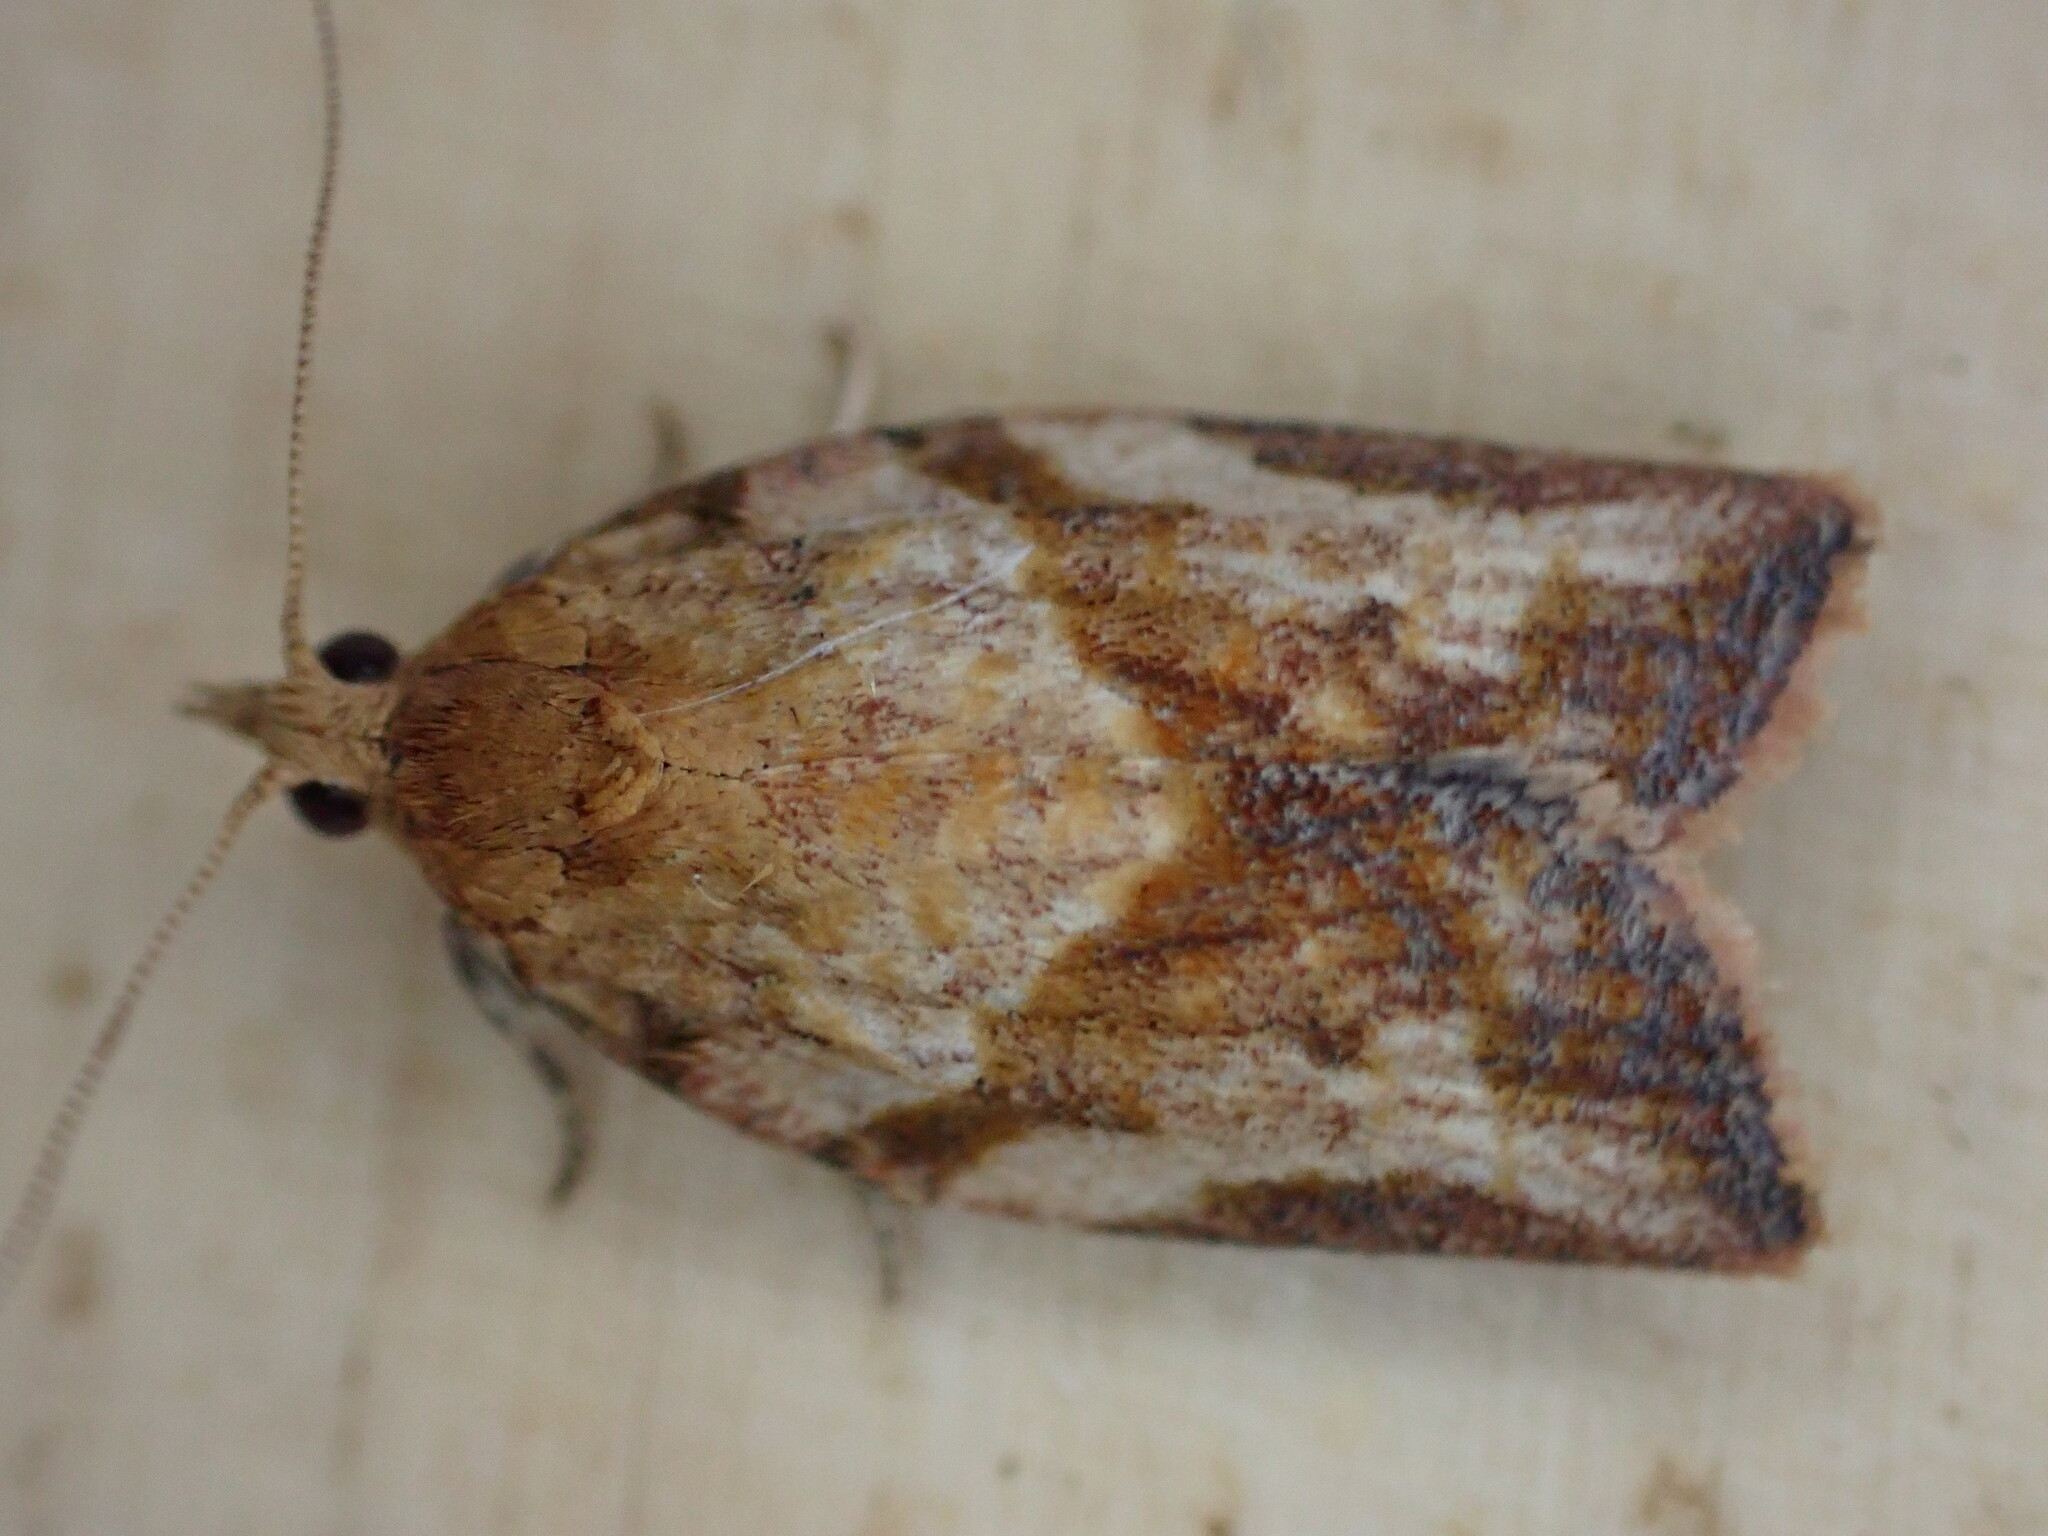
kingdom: Animalia
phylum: Arthropoda
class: Insecta
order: Lepidoptera
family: Tortricidae
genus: Epiphyas
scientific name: Epiphyas postvittana
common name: Light brown apple moth
